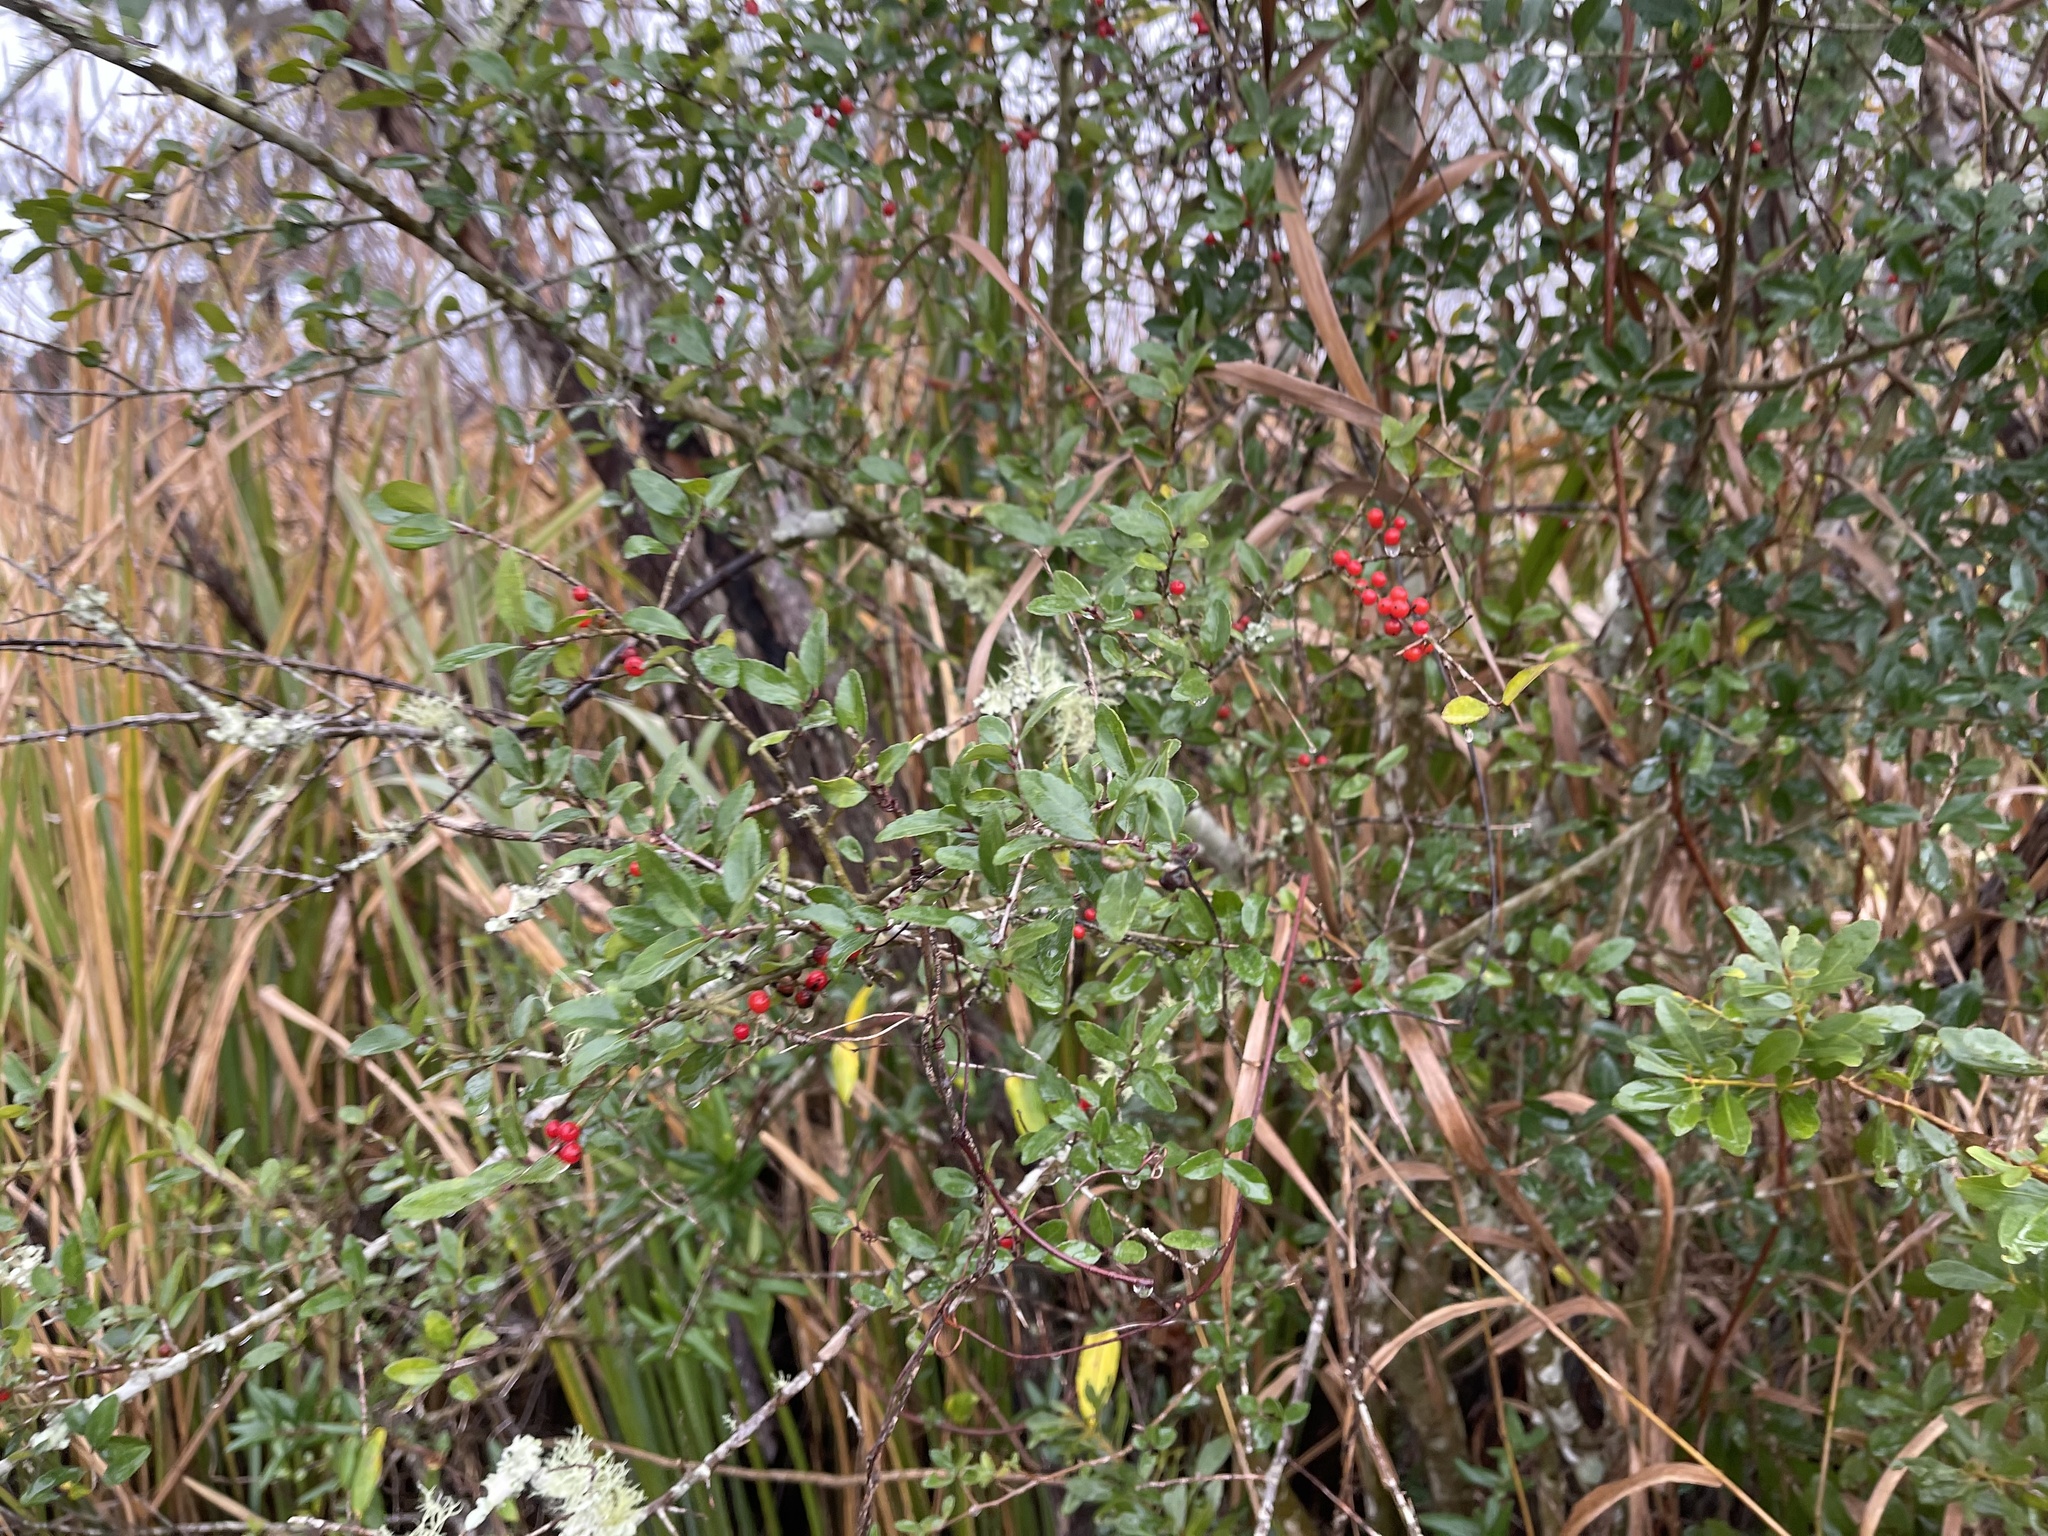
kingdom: Plantae
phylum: Tracheophyta
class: Magnoliopsida
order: Aquifoliales
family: Aquifoliaceae
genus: Ilex
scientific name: Ilex vomitoria
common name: Yaupon holly
